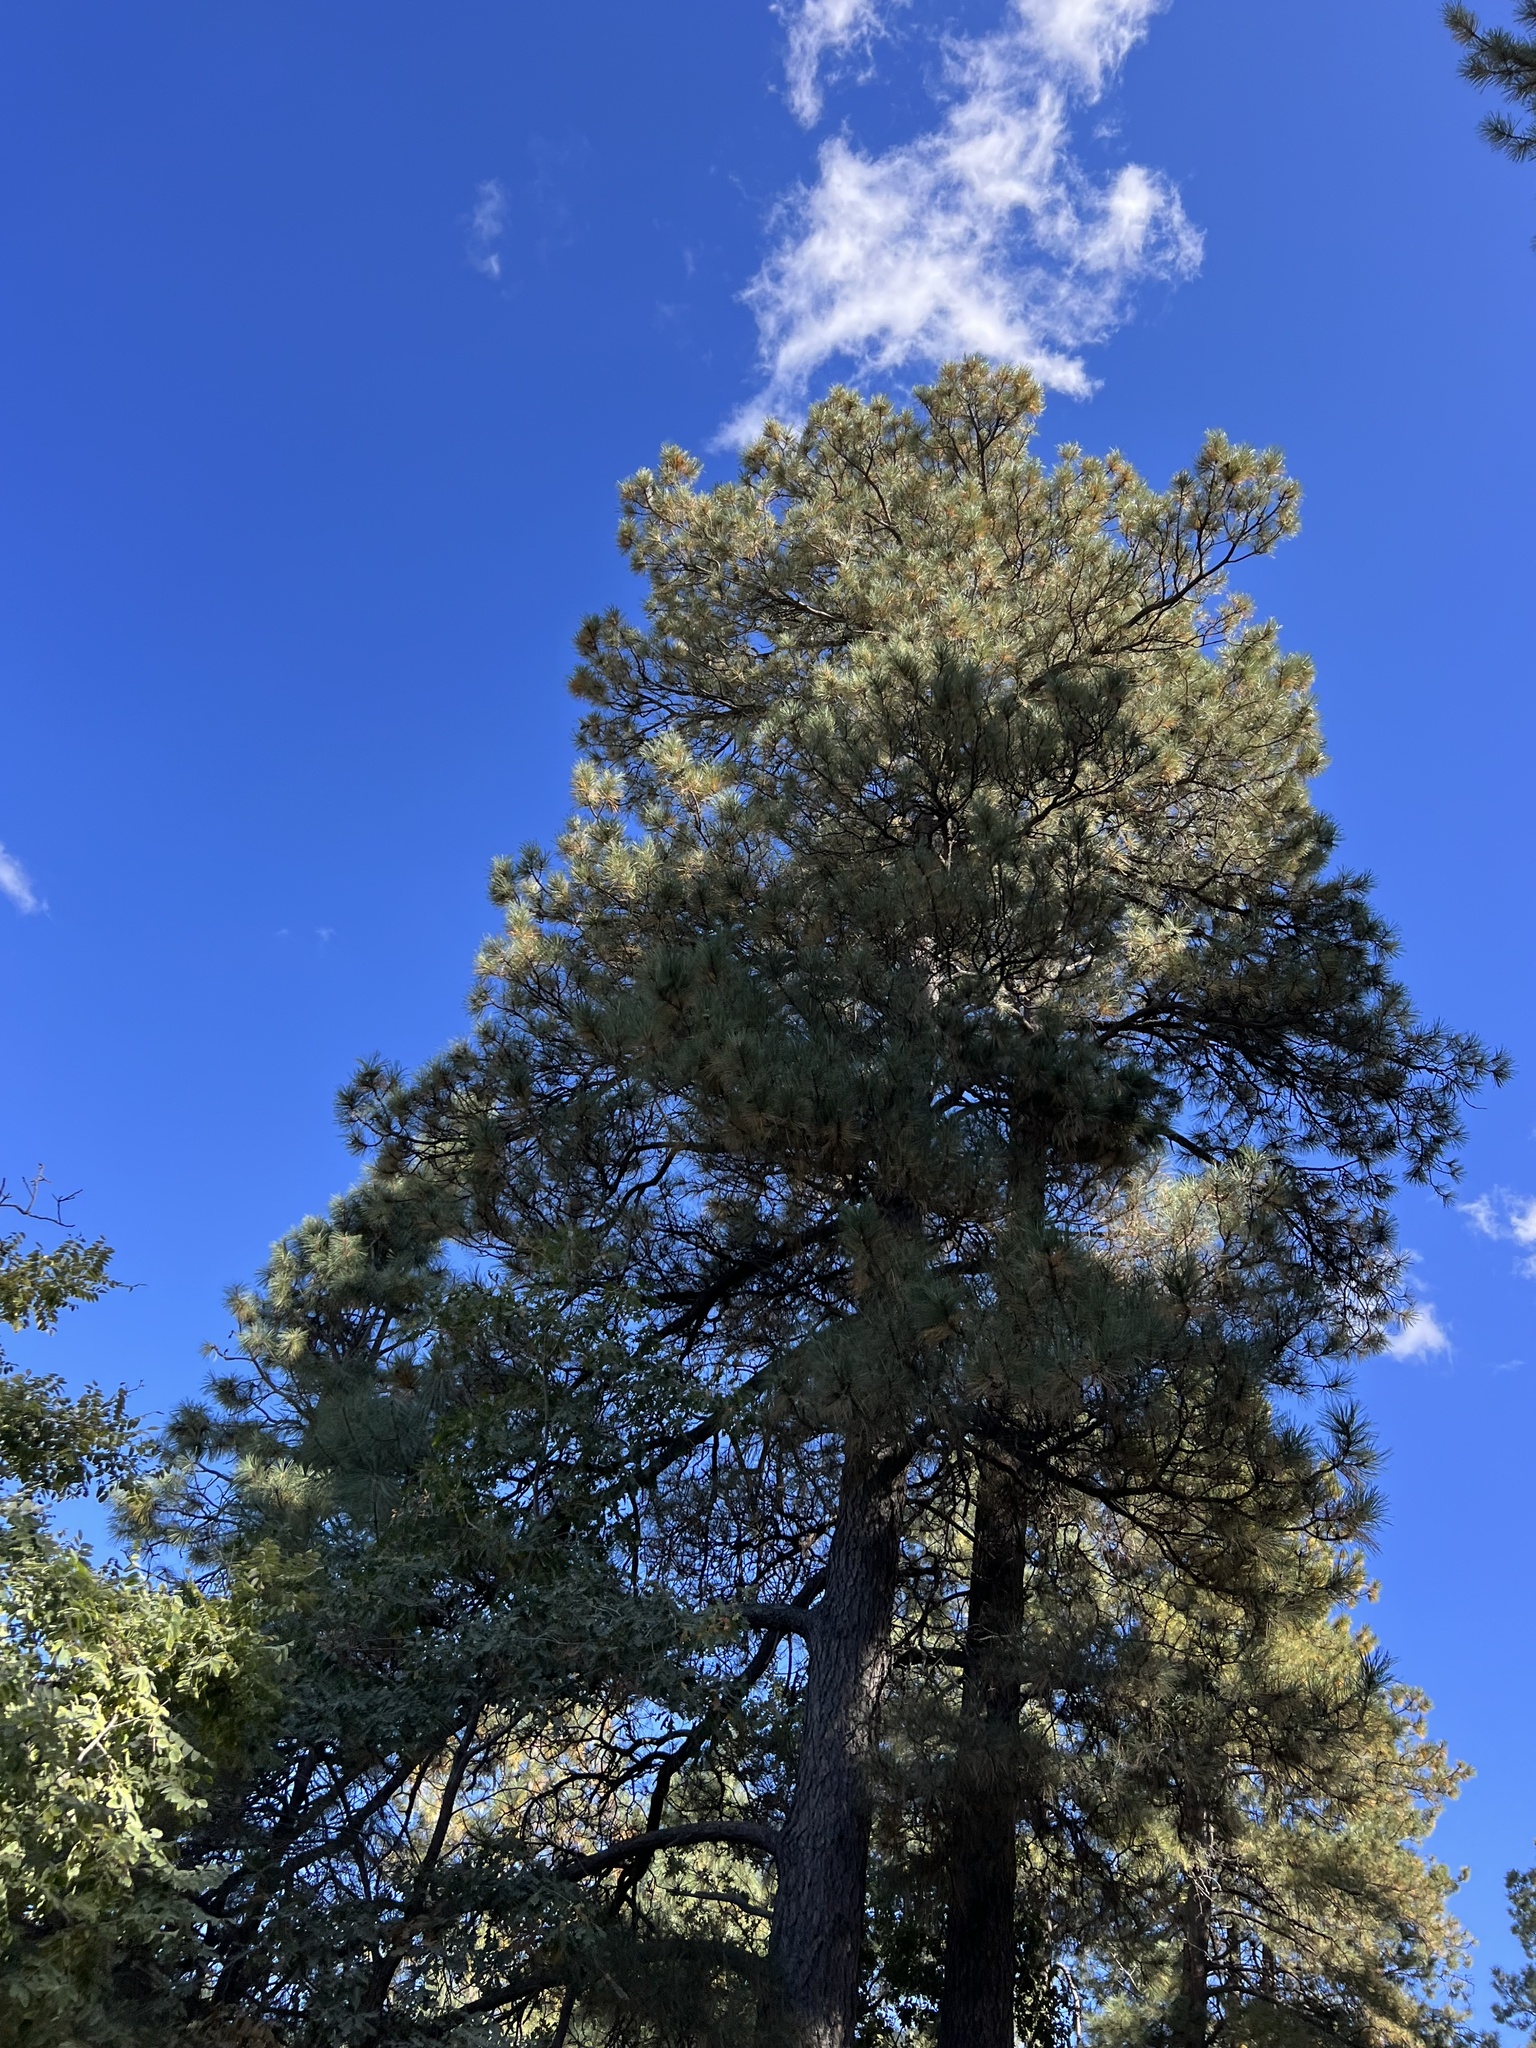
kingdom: Plantae
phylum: Tracheophyta
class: Pinopsida
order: Pinales
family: Pinaceae
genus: Pinus
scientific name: Pinus ponderosa
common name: Western yellow-pine
